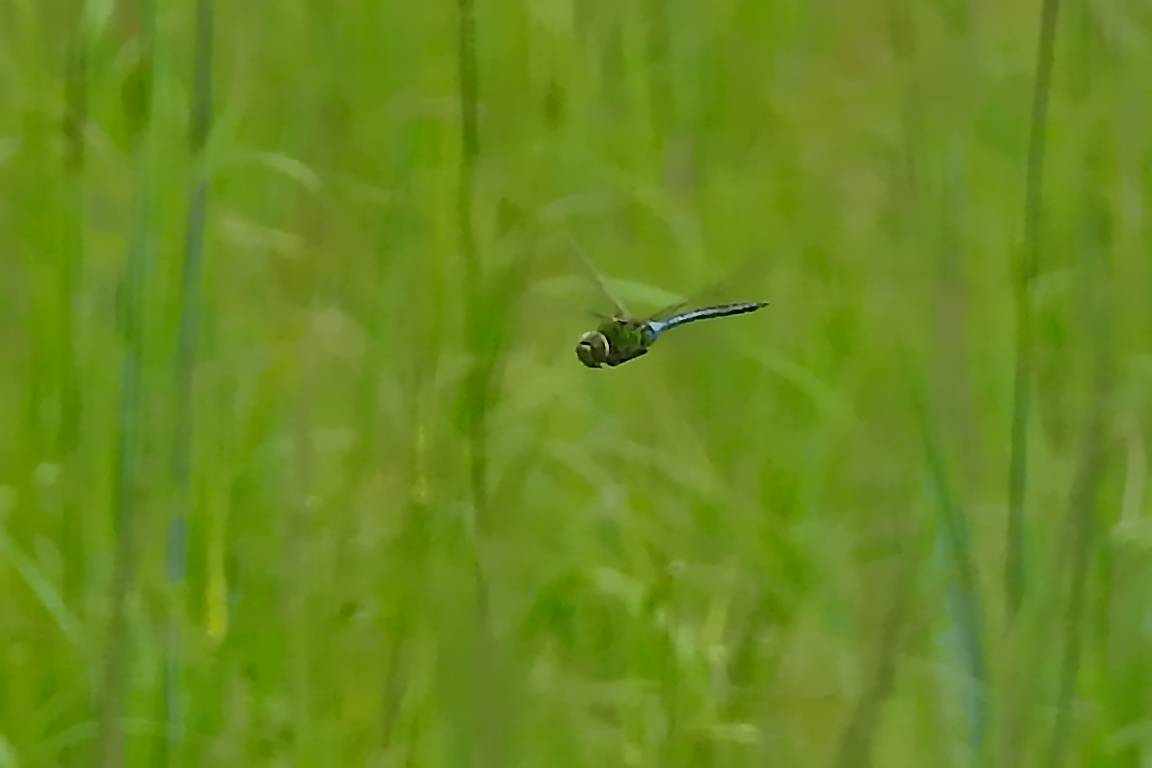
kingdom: Animalia
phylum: Arthropoda
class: Insecta
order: Odonata
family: Aeshnidae
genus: Anax
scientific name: Anax junius
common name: Common green darner
